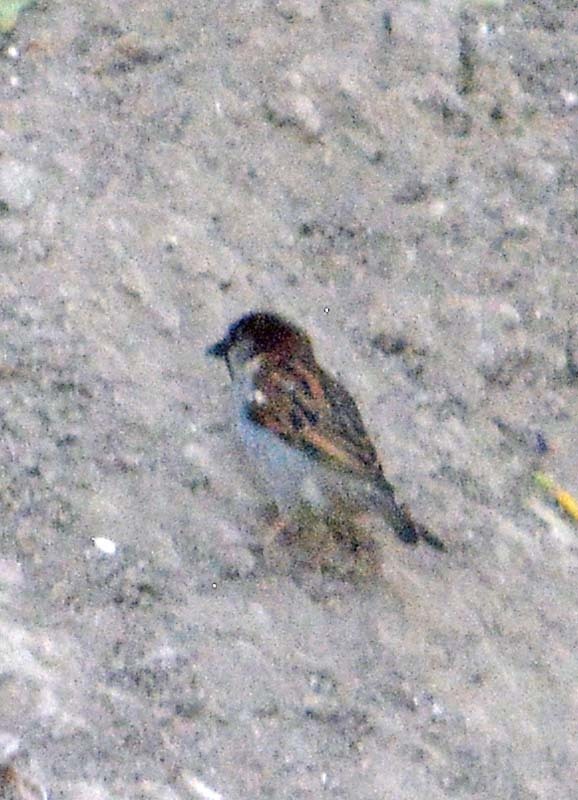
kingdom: Animalia
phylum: Chordata
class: Aves
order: Passeriformes
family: Passeridae
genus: Passer
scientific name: Passer domesticus
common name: House sparrow
